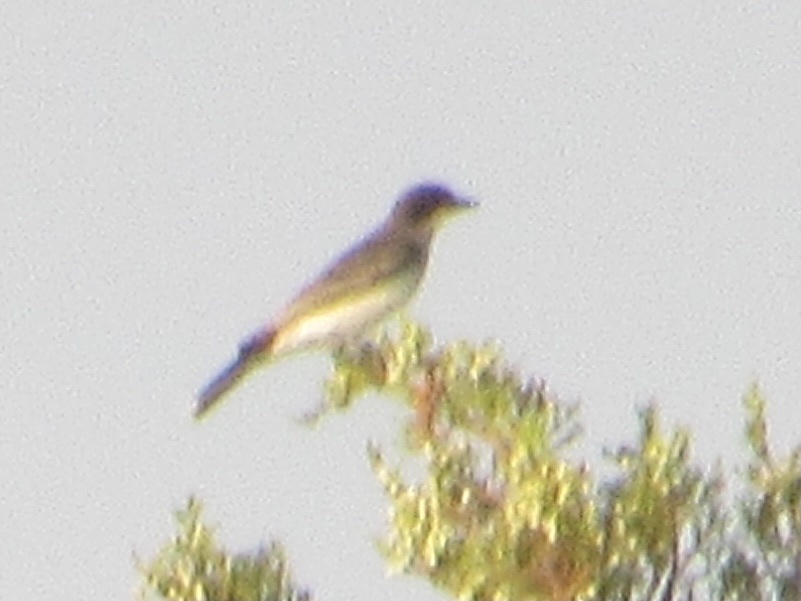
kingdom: Animalia
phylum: Chordata
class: Aves
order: Passeriformes
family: Tyrannidae
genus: Tyrannus
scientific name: Tyrannus tyrannus
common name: Eastern kingbird
